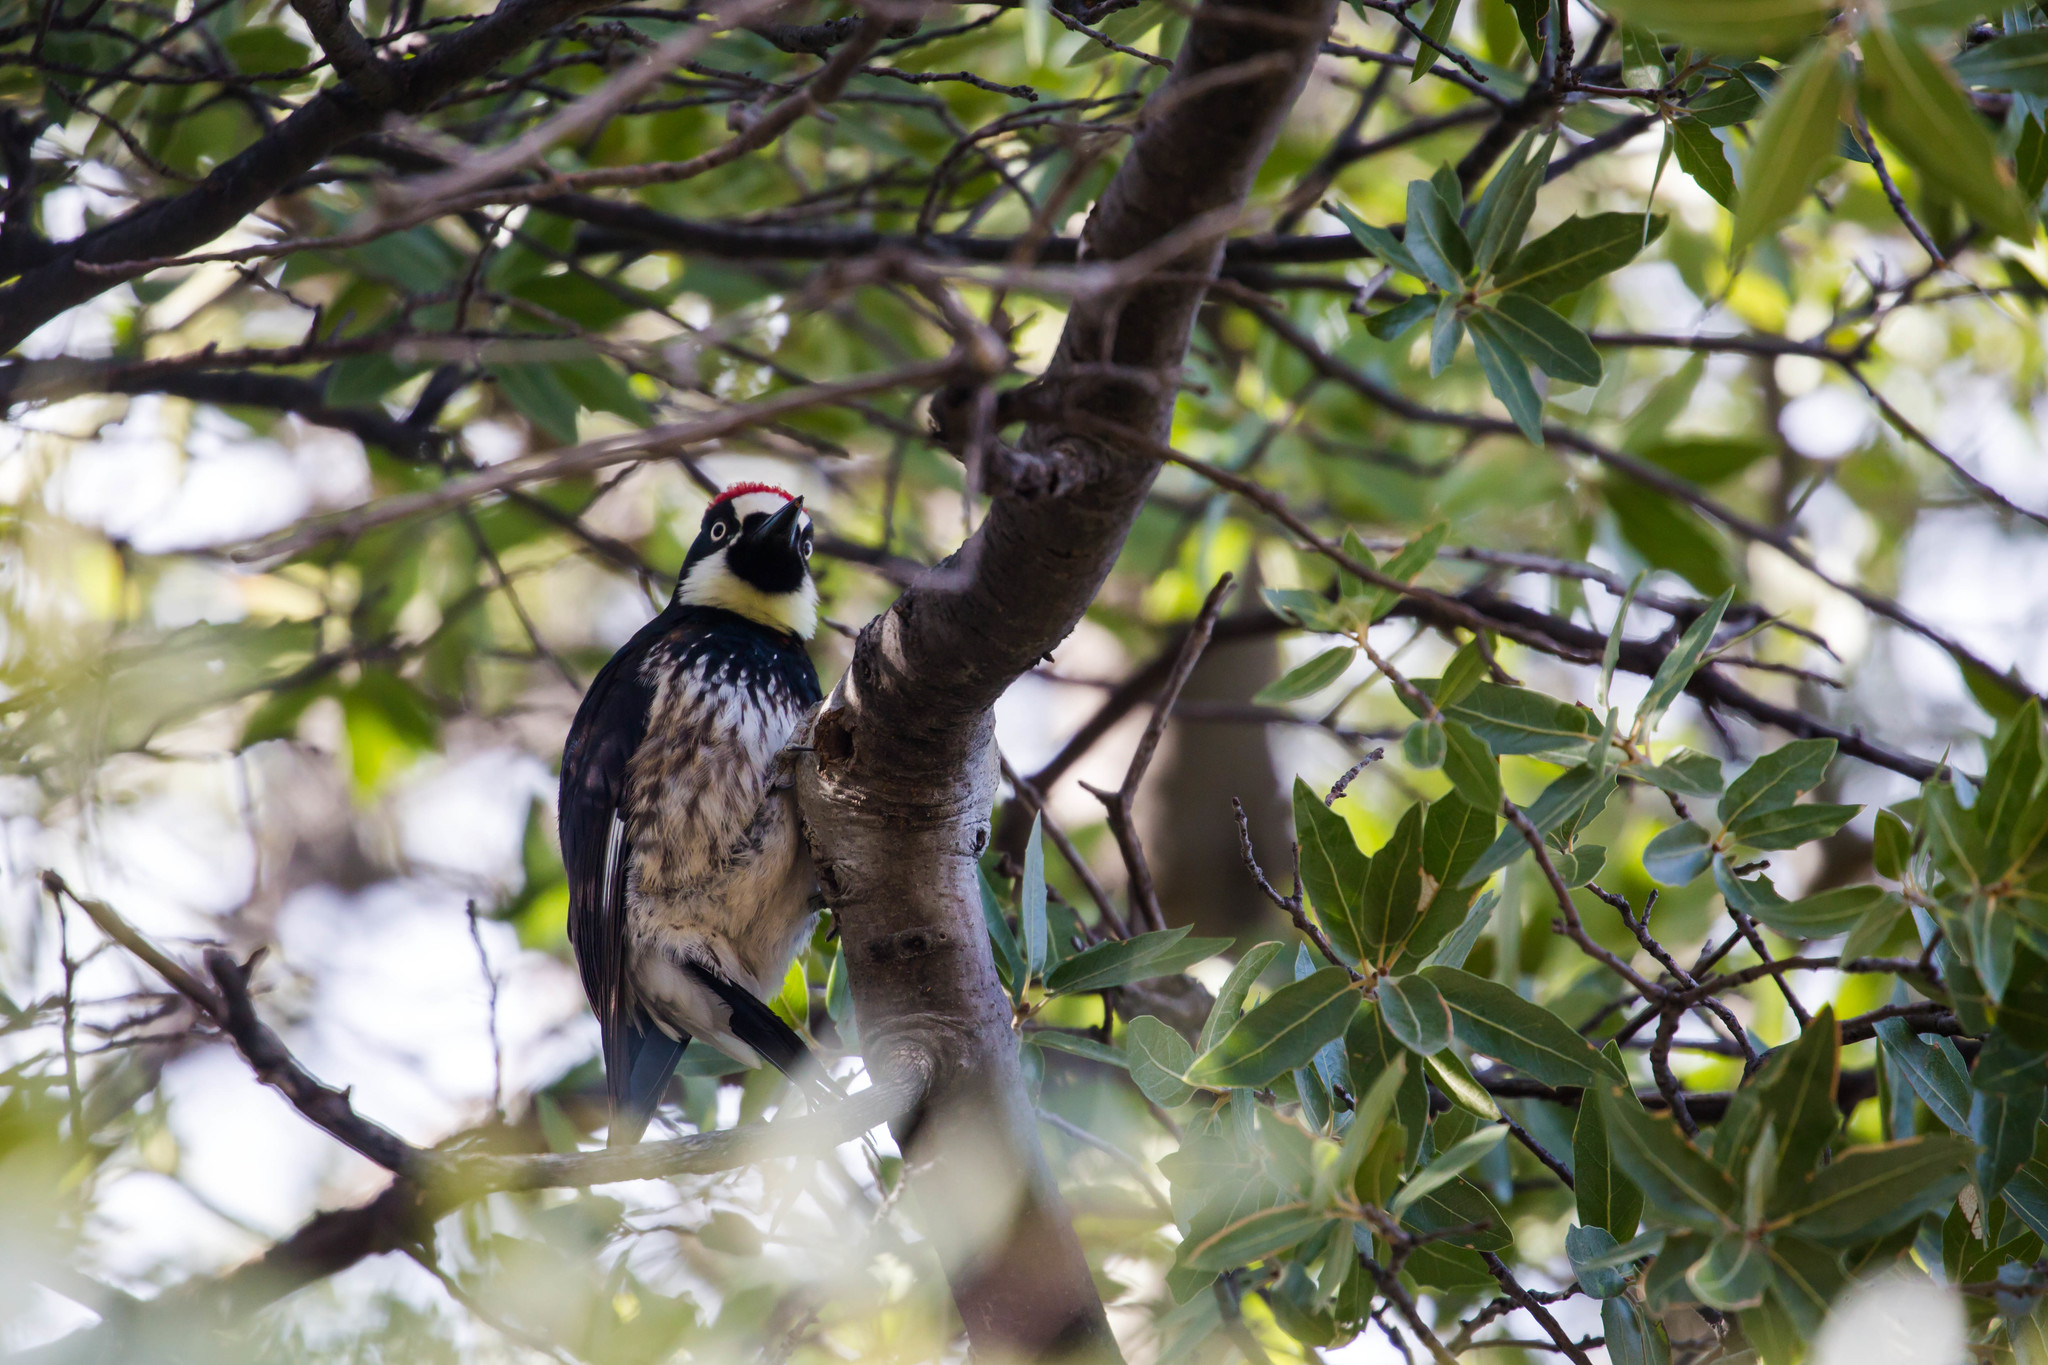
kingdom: Animalia
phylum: Chordata
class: Aves
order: Piciformes
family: Picidae
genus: Melanerpes
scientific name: Melanerpes formicivorus
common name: Acorn woodpecker
